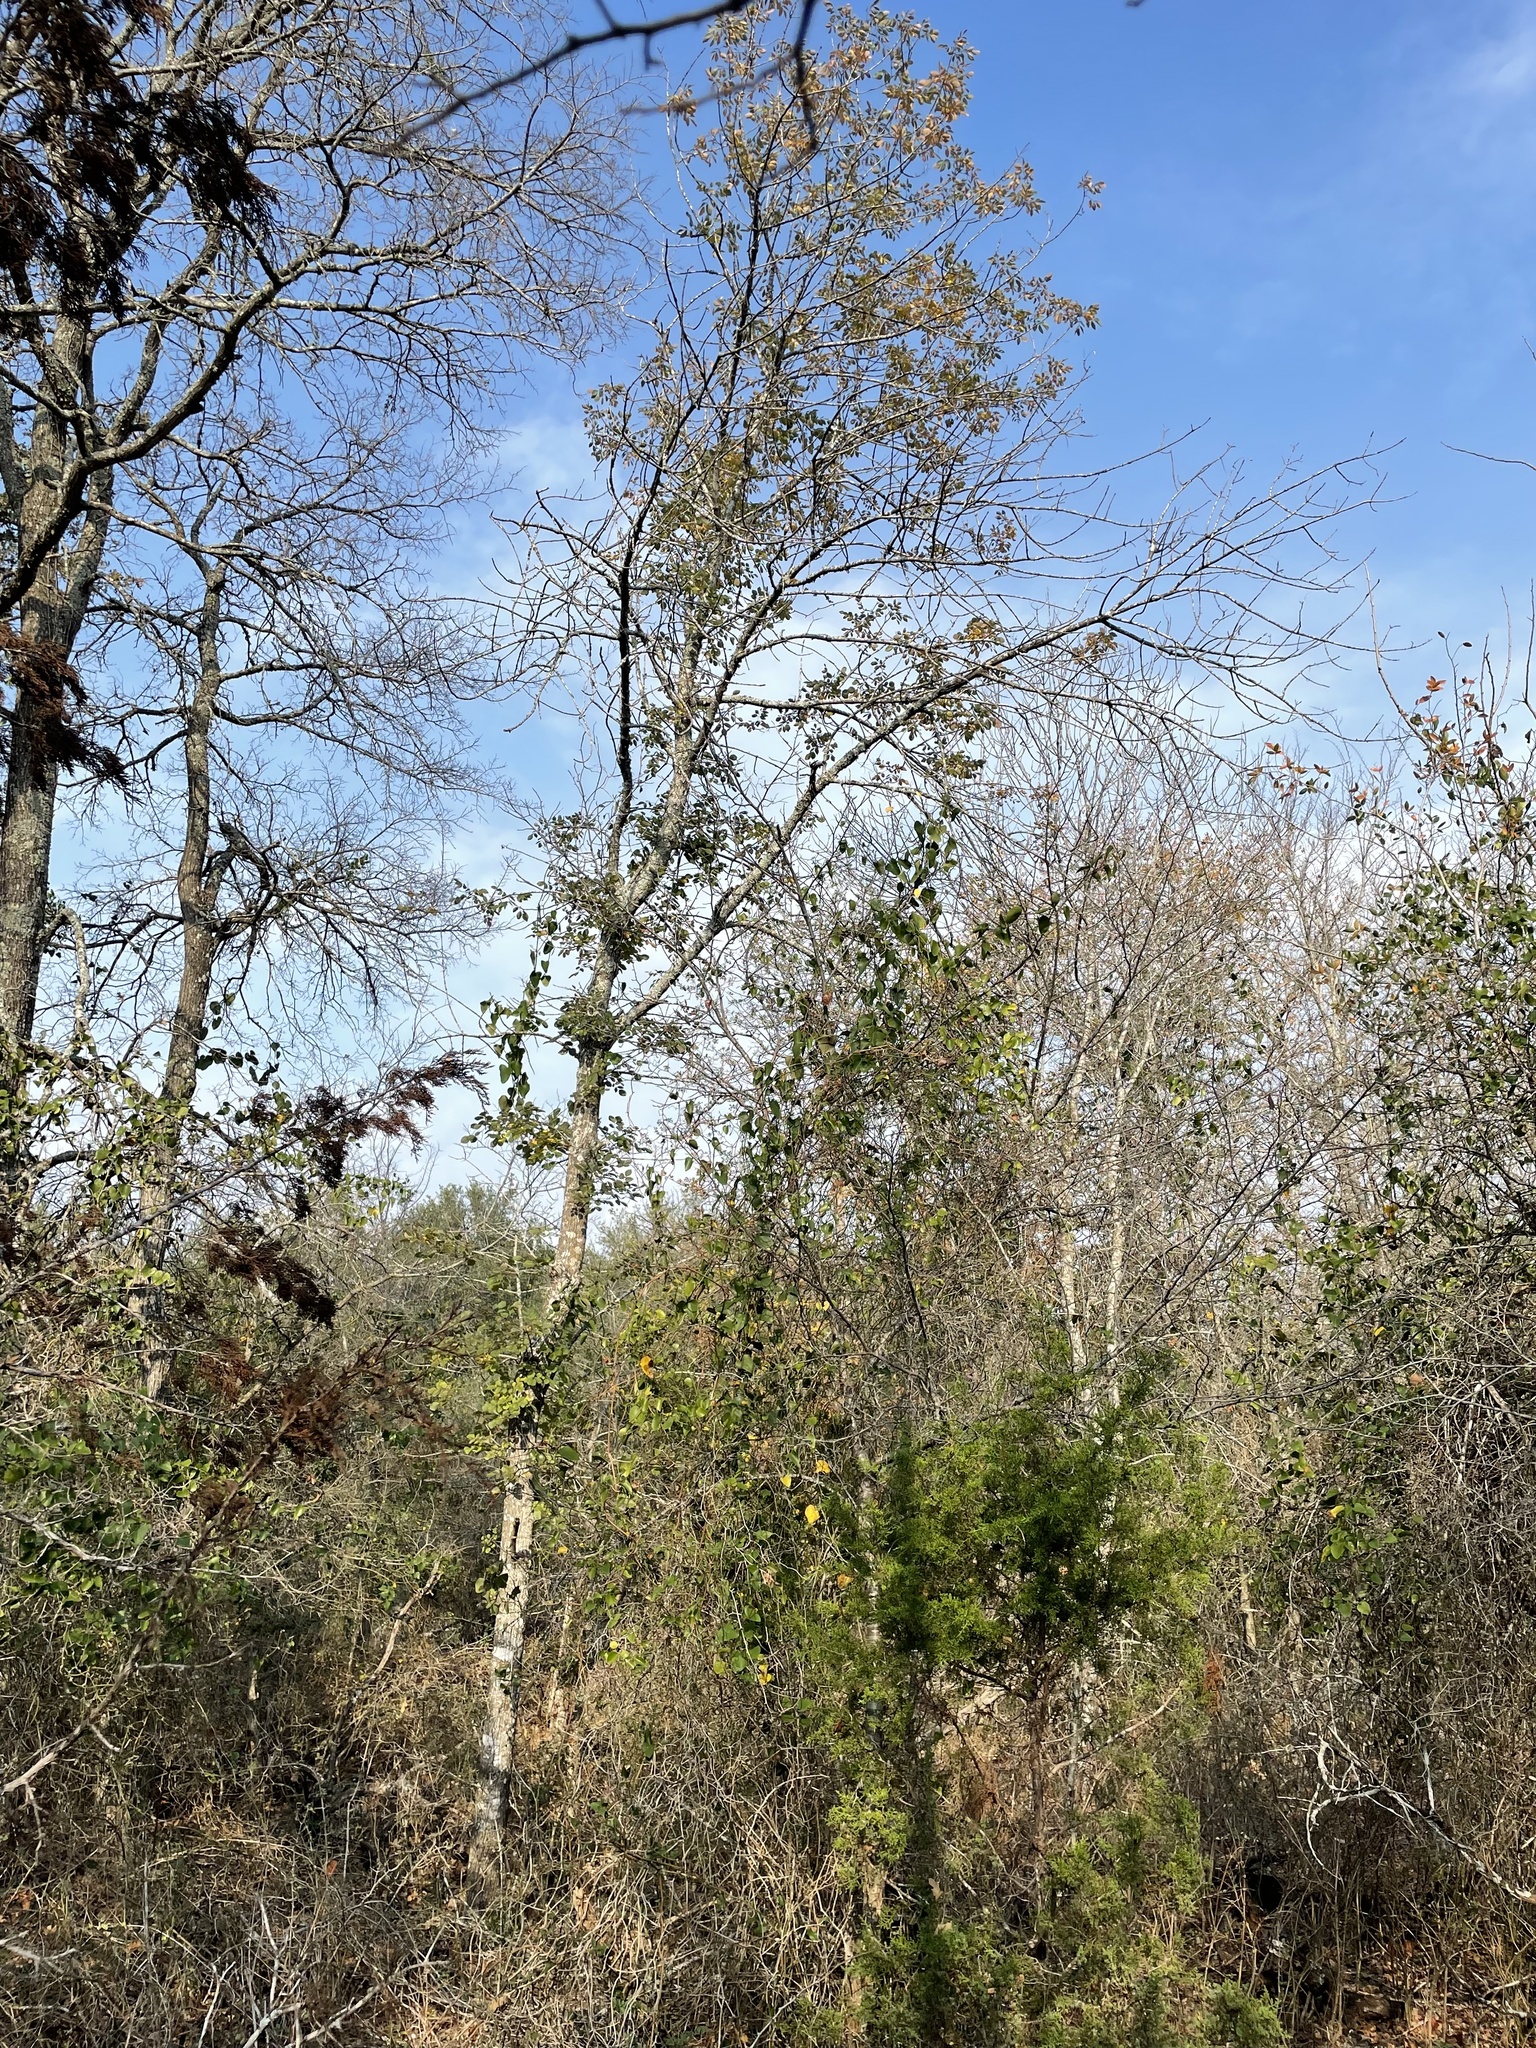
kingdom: Plantae
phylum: Tracheophyta
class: Magnoliopsida
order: Lamiales
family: Oleaceae
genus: Fraxinus
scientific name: Fraxinus albicans
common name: Texas ash
